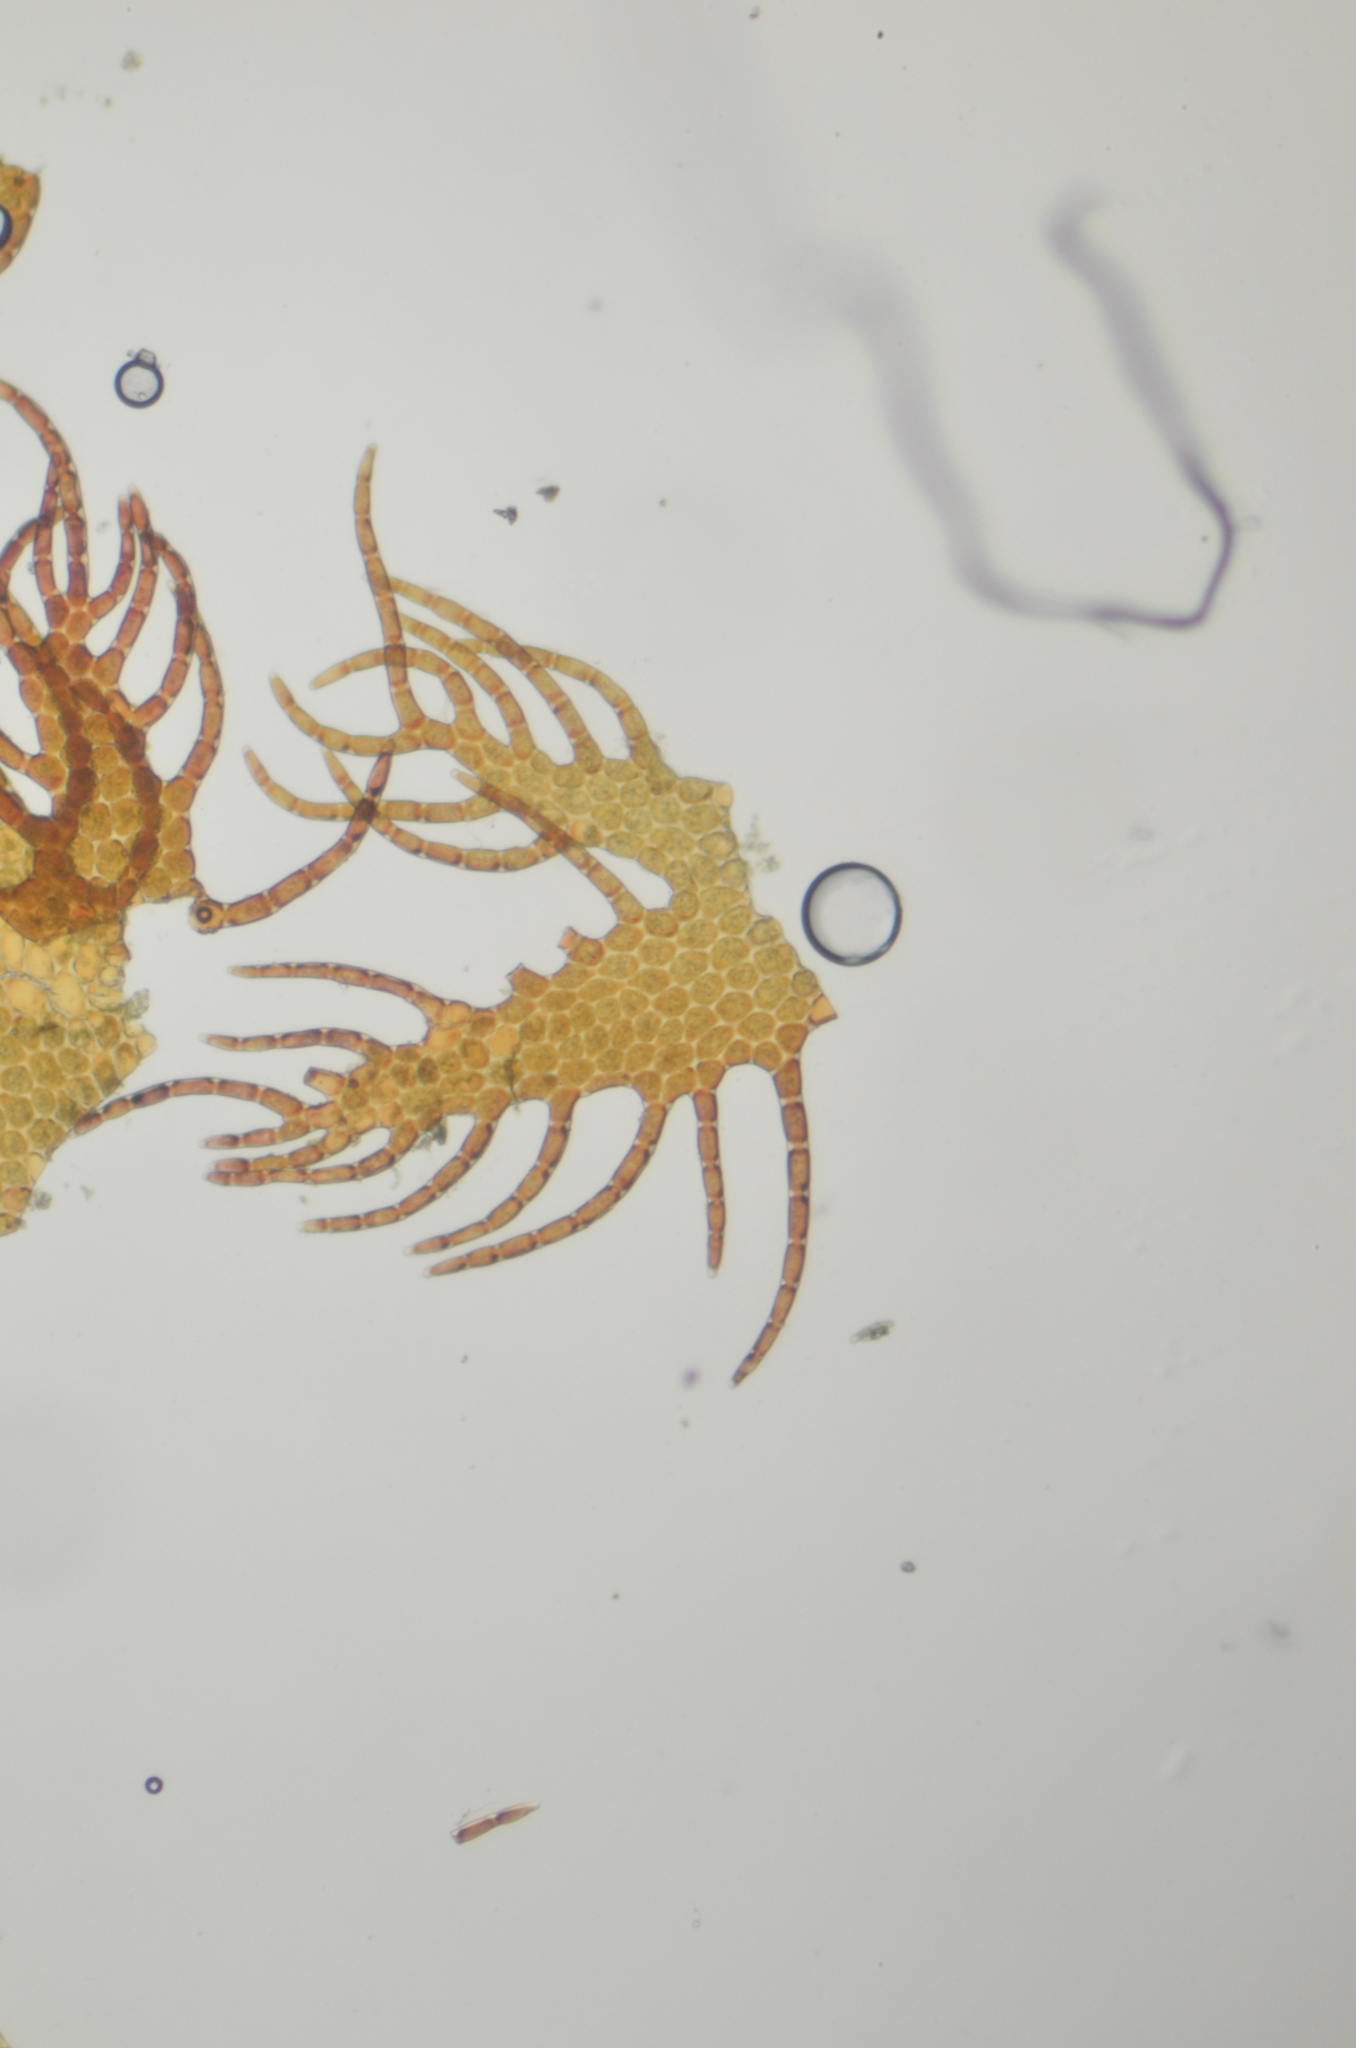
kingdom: Plantae
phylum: Marchantiophyta
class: Jungermanniopsida
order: Ptilidiales
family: Ptilidiaceae
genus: Ptilidium
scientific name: Ptilidium pulcherrimum
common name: Tree fringewort
